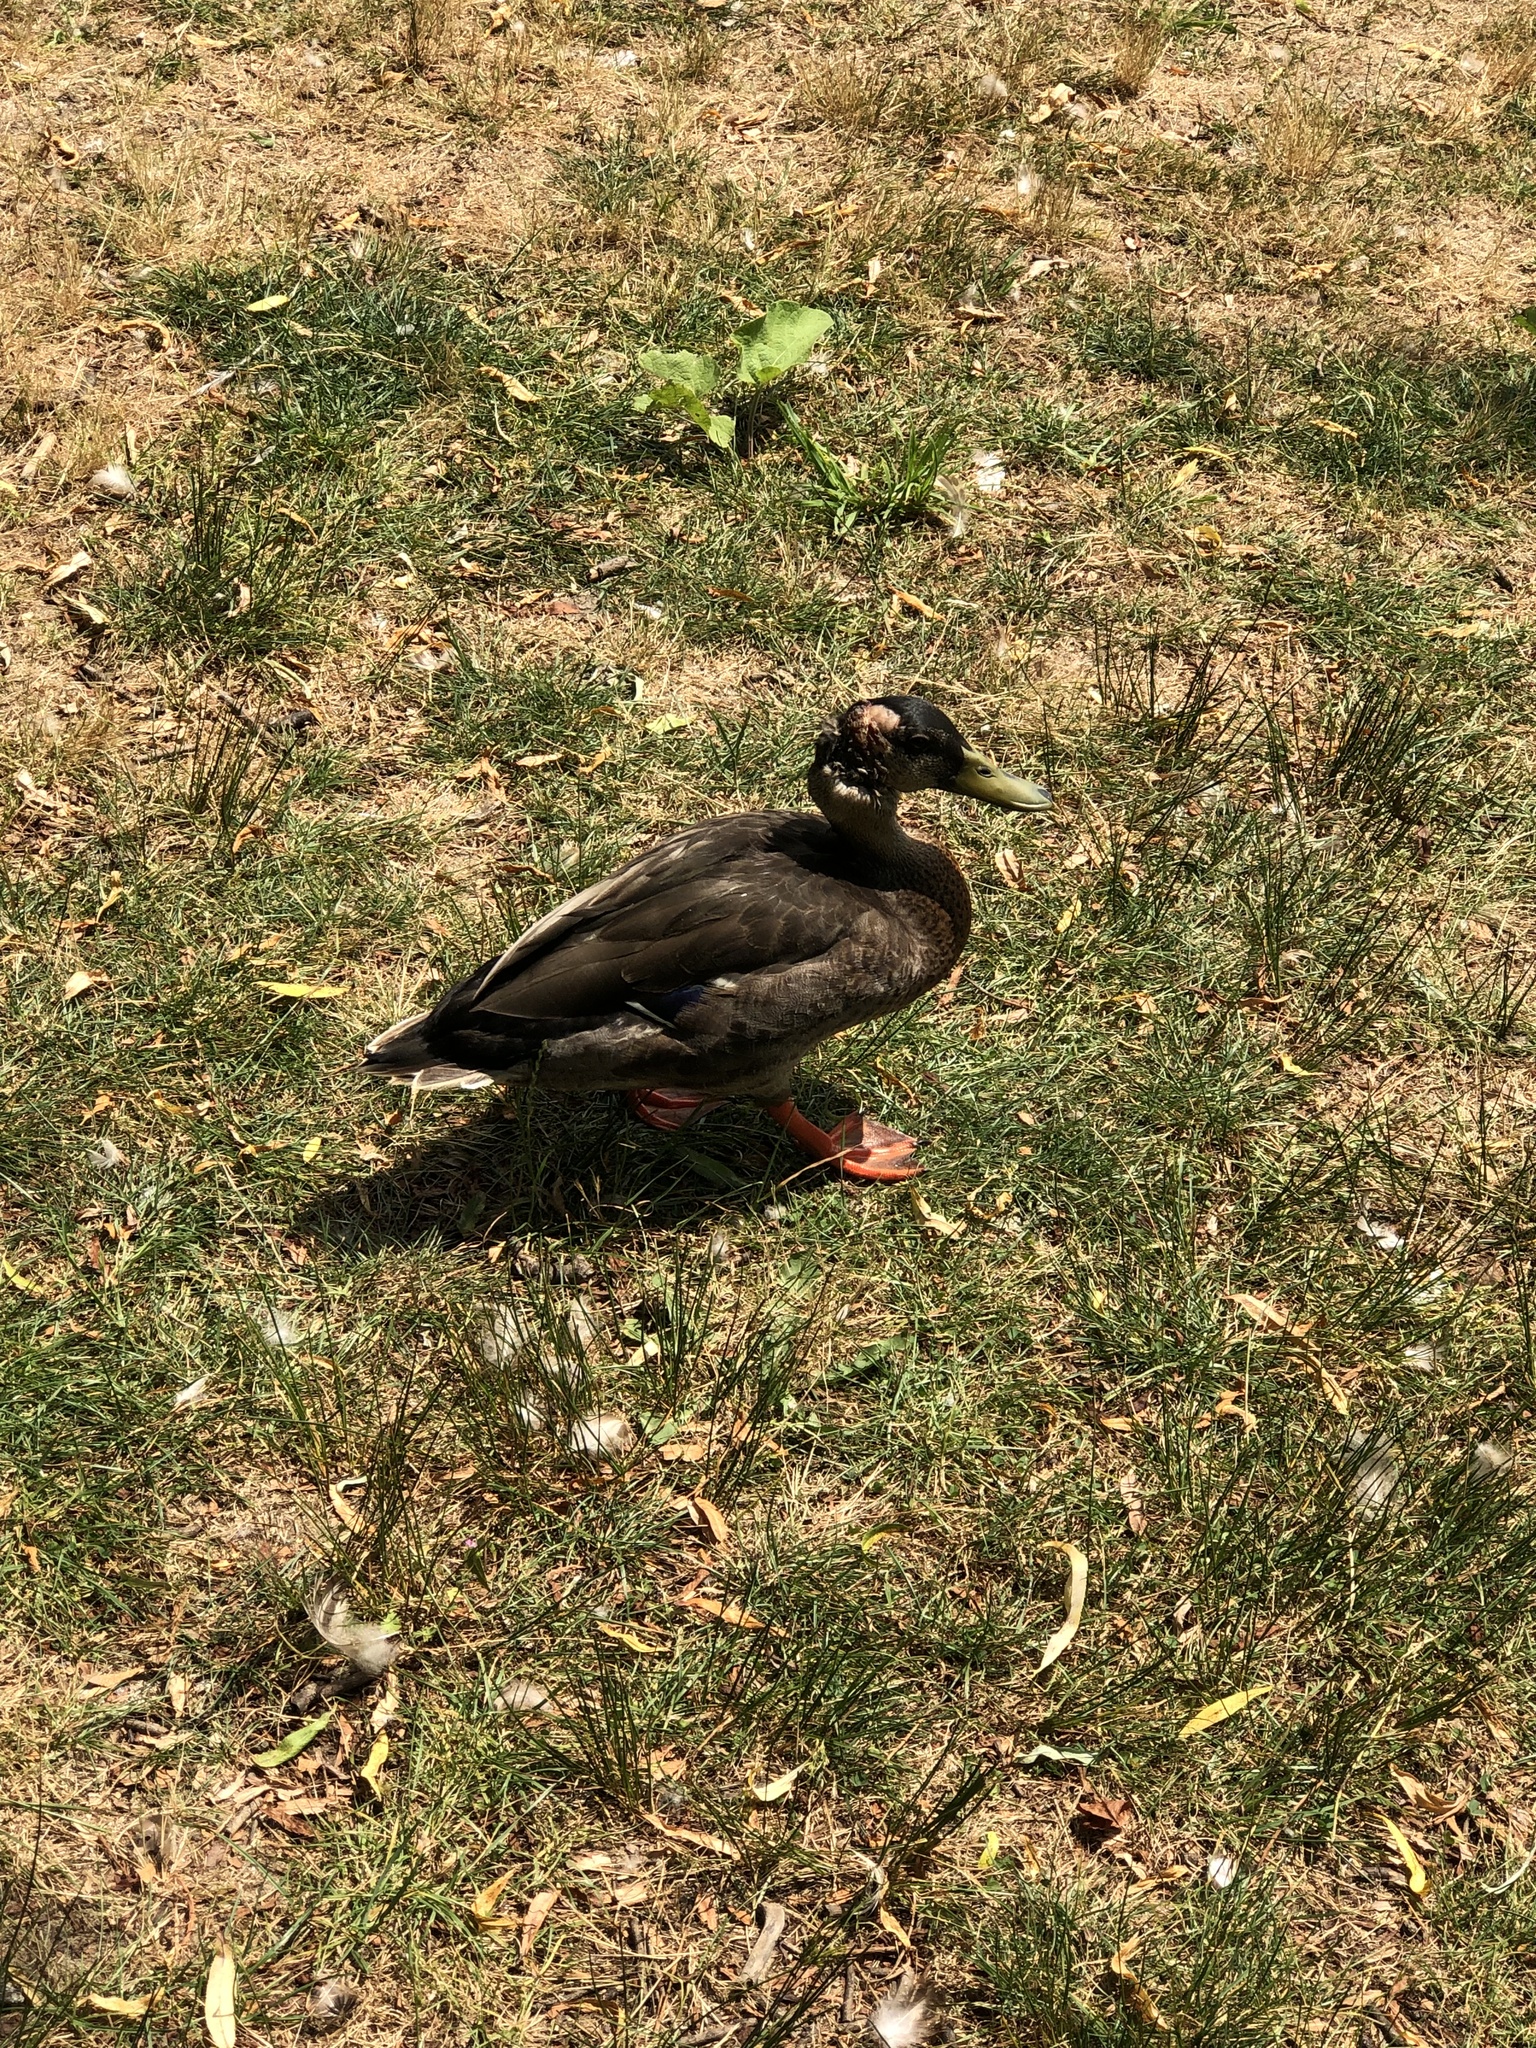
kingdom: Animalia
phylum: Chordata
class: Aves
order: Anseriformes
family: Anatidae
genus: Anas
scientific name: Anas platyrhynchos
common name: Mallard
